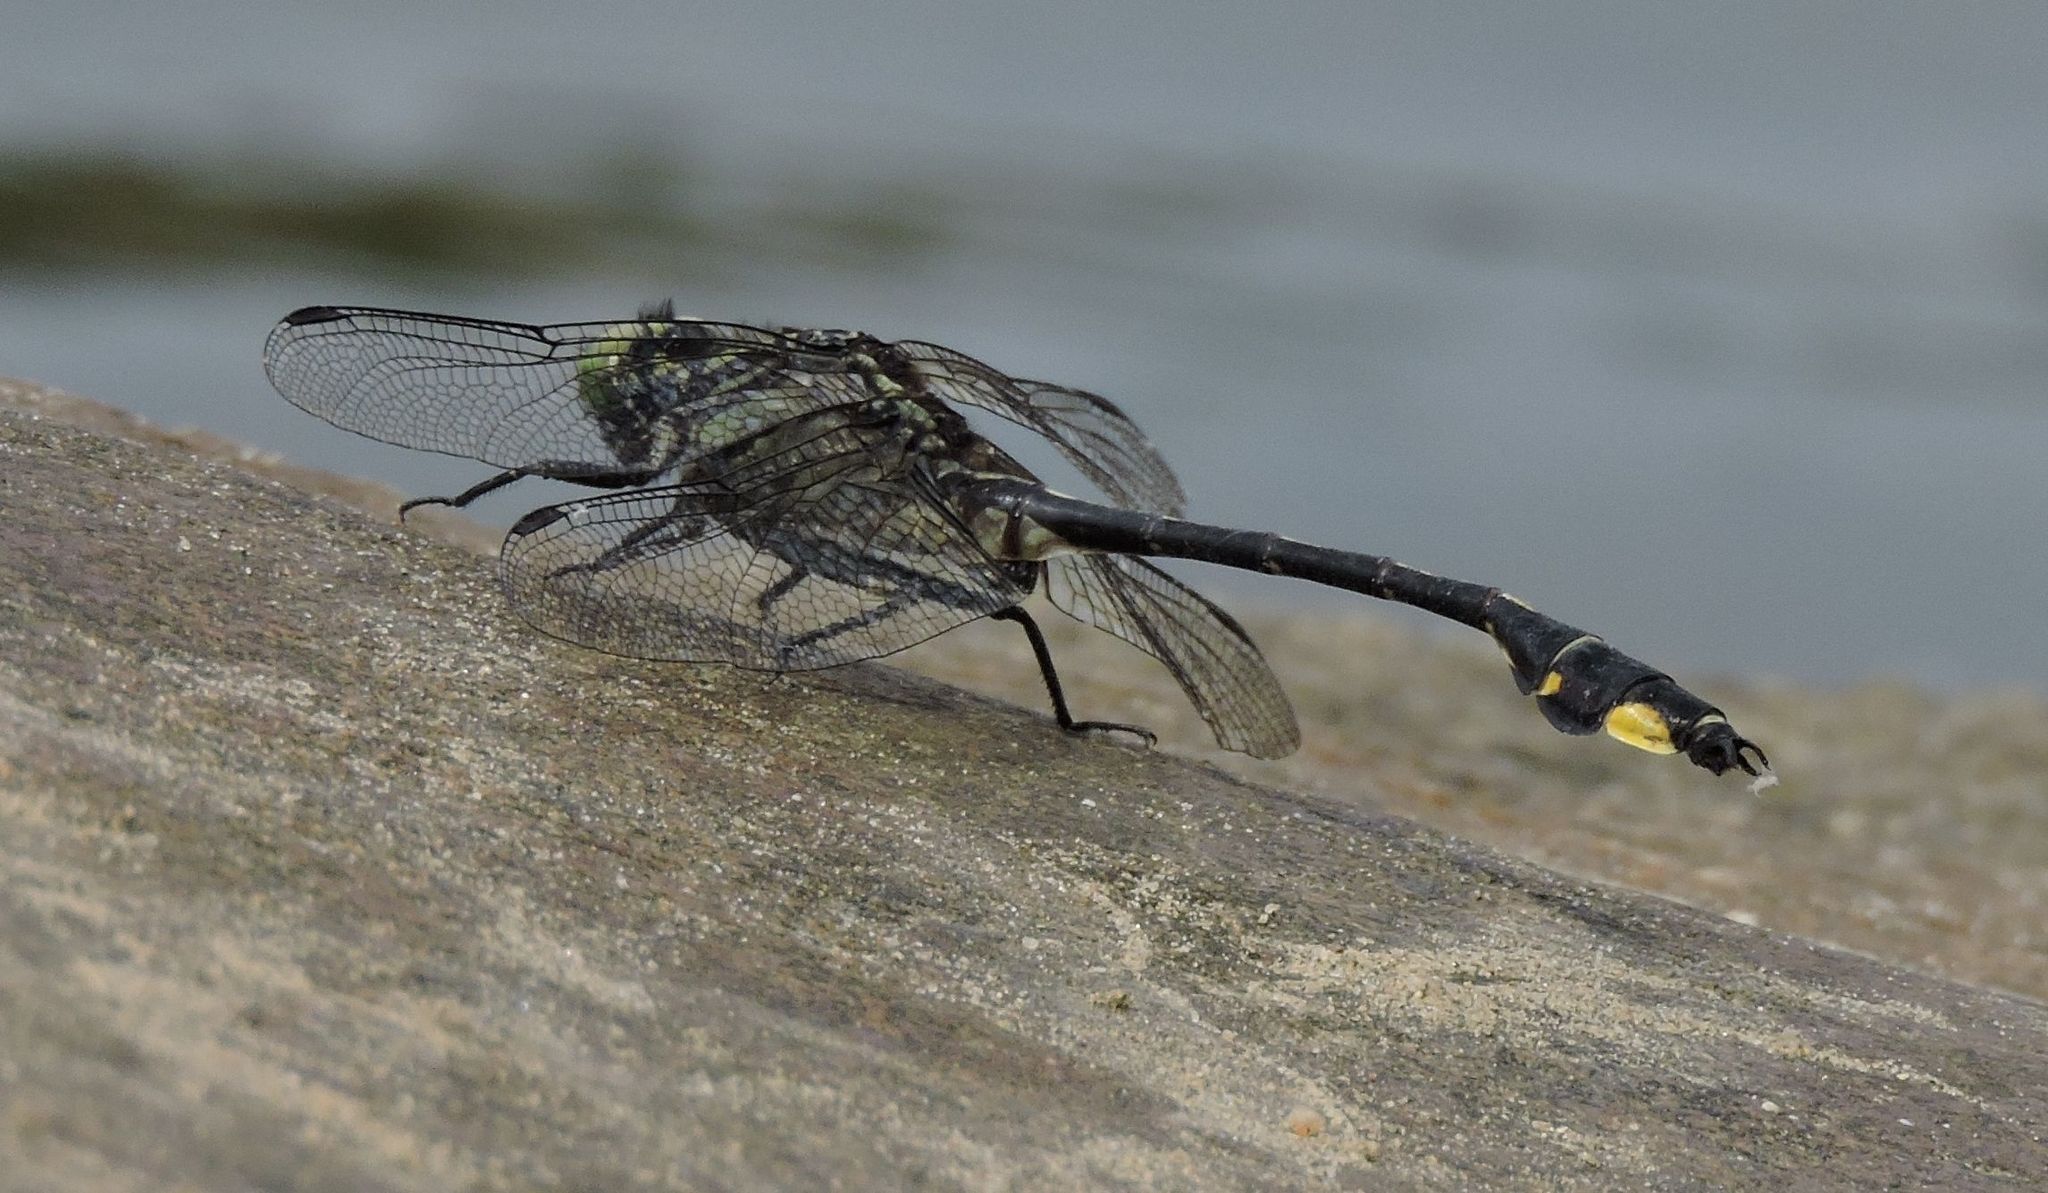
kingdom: Animalia
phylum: Arthropoda
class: Insecta
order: Odonata
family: Gomphidae
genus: Gomphurus
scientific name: Gomphurus vastus
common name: Cobra clubtail
